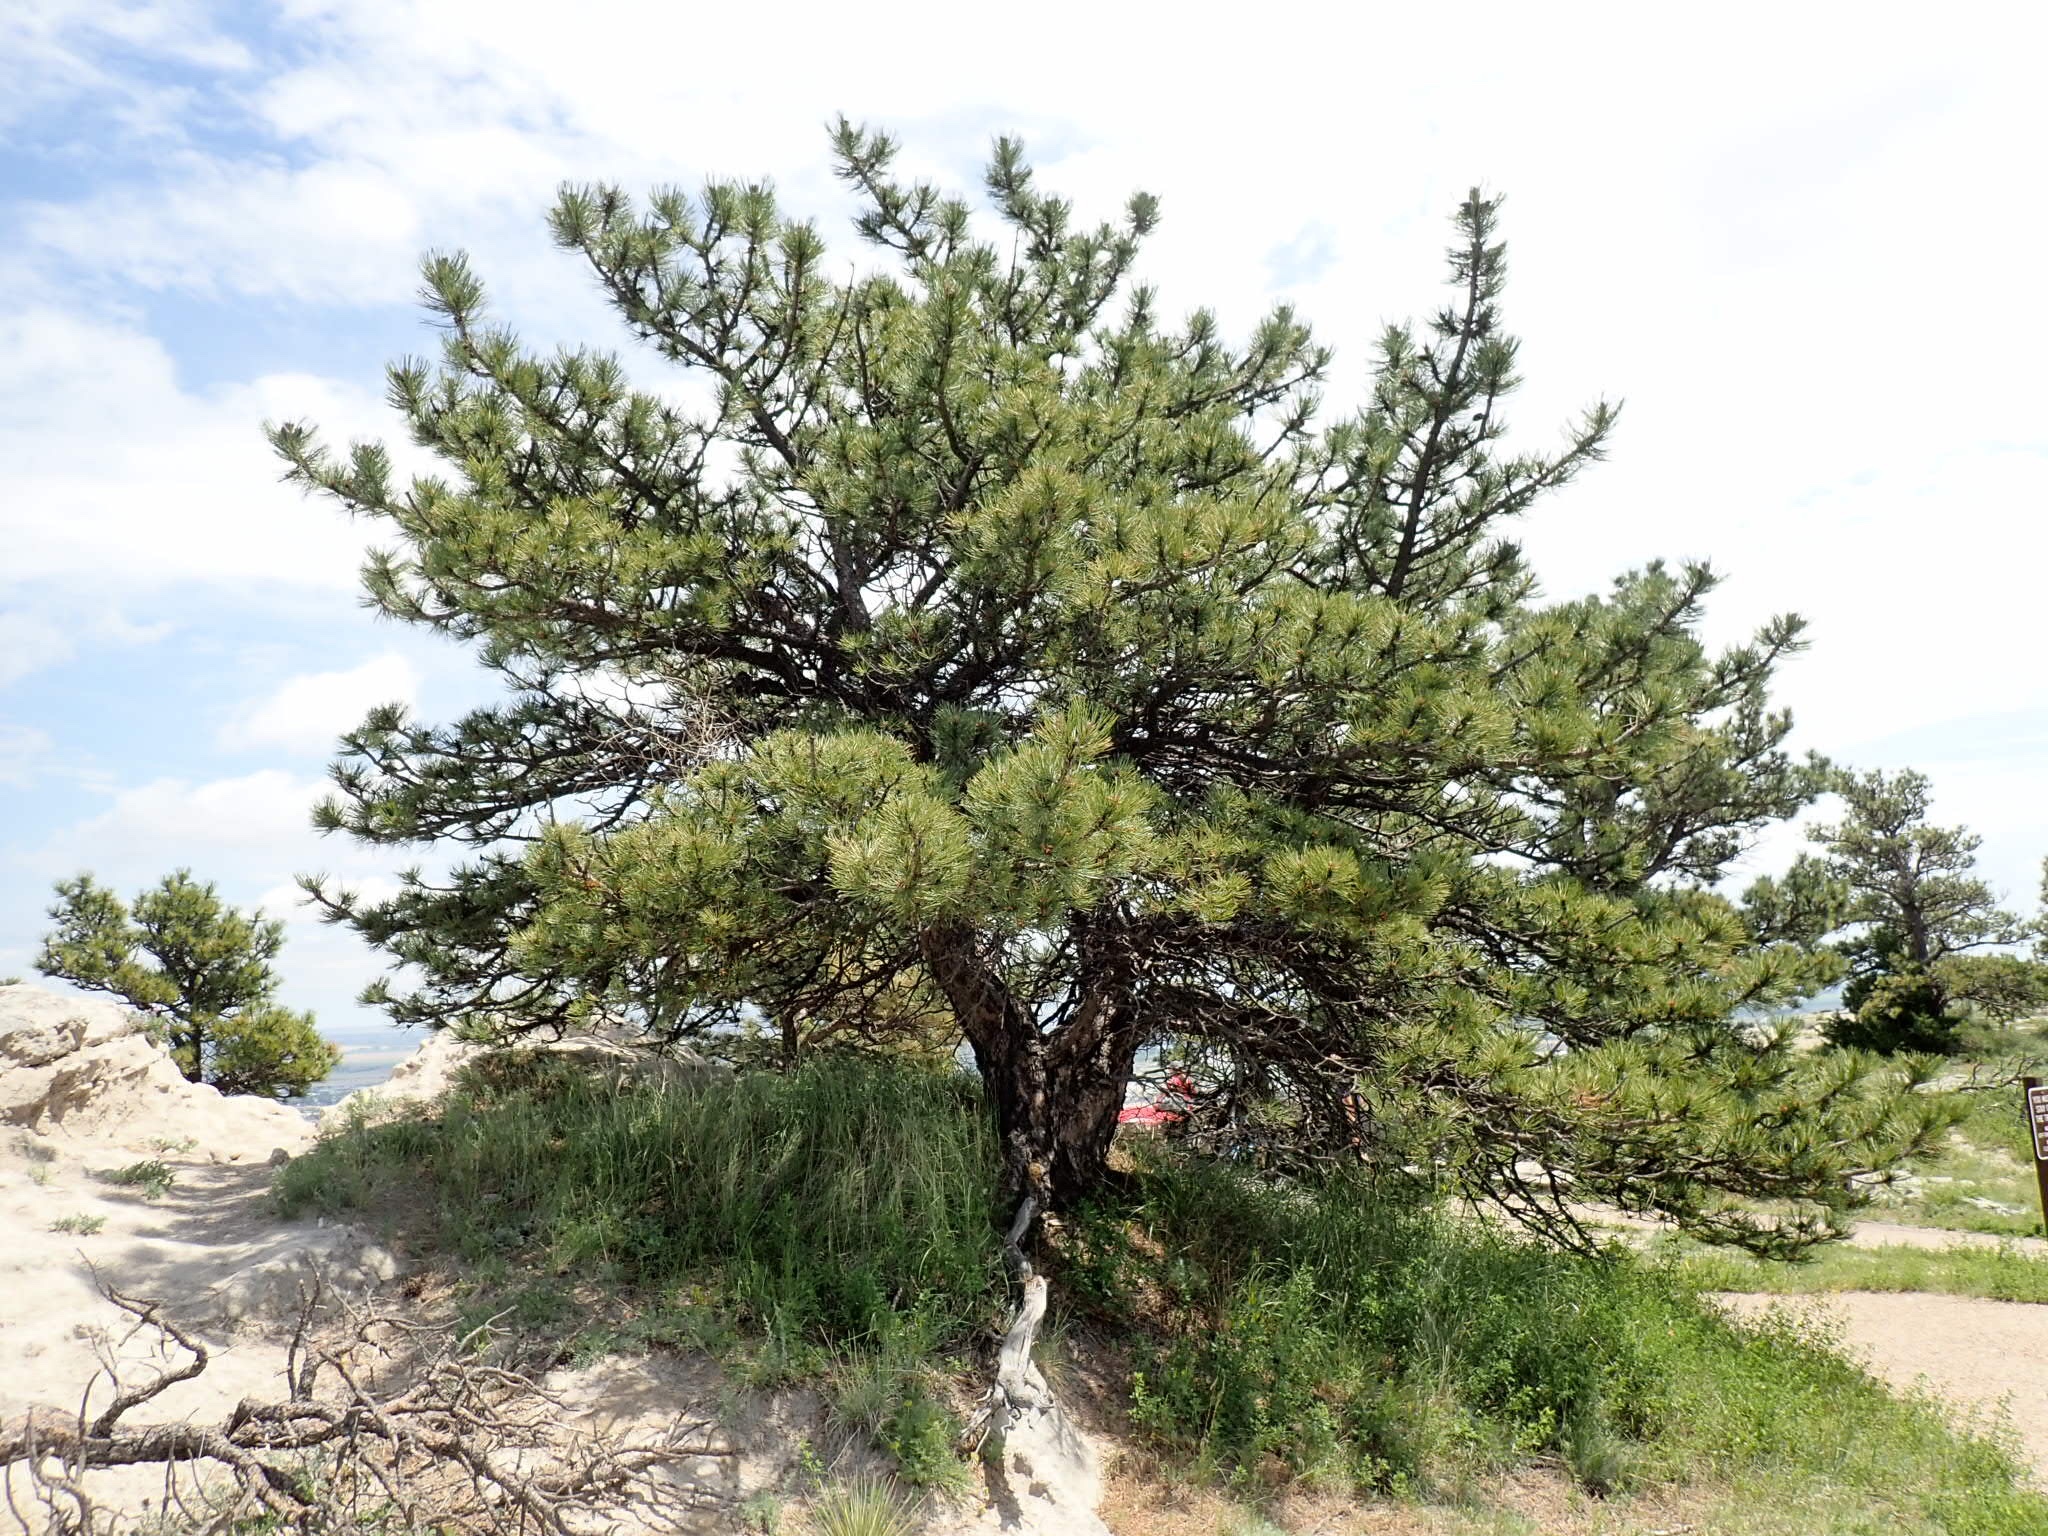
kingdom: Plantae
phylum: Tracheophyta
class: Pinopsida
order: Pinales
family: Pinaceae
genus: Pinus
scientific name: Pinus ponderosa
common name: Western yellow-pine
